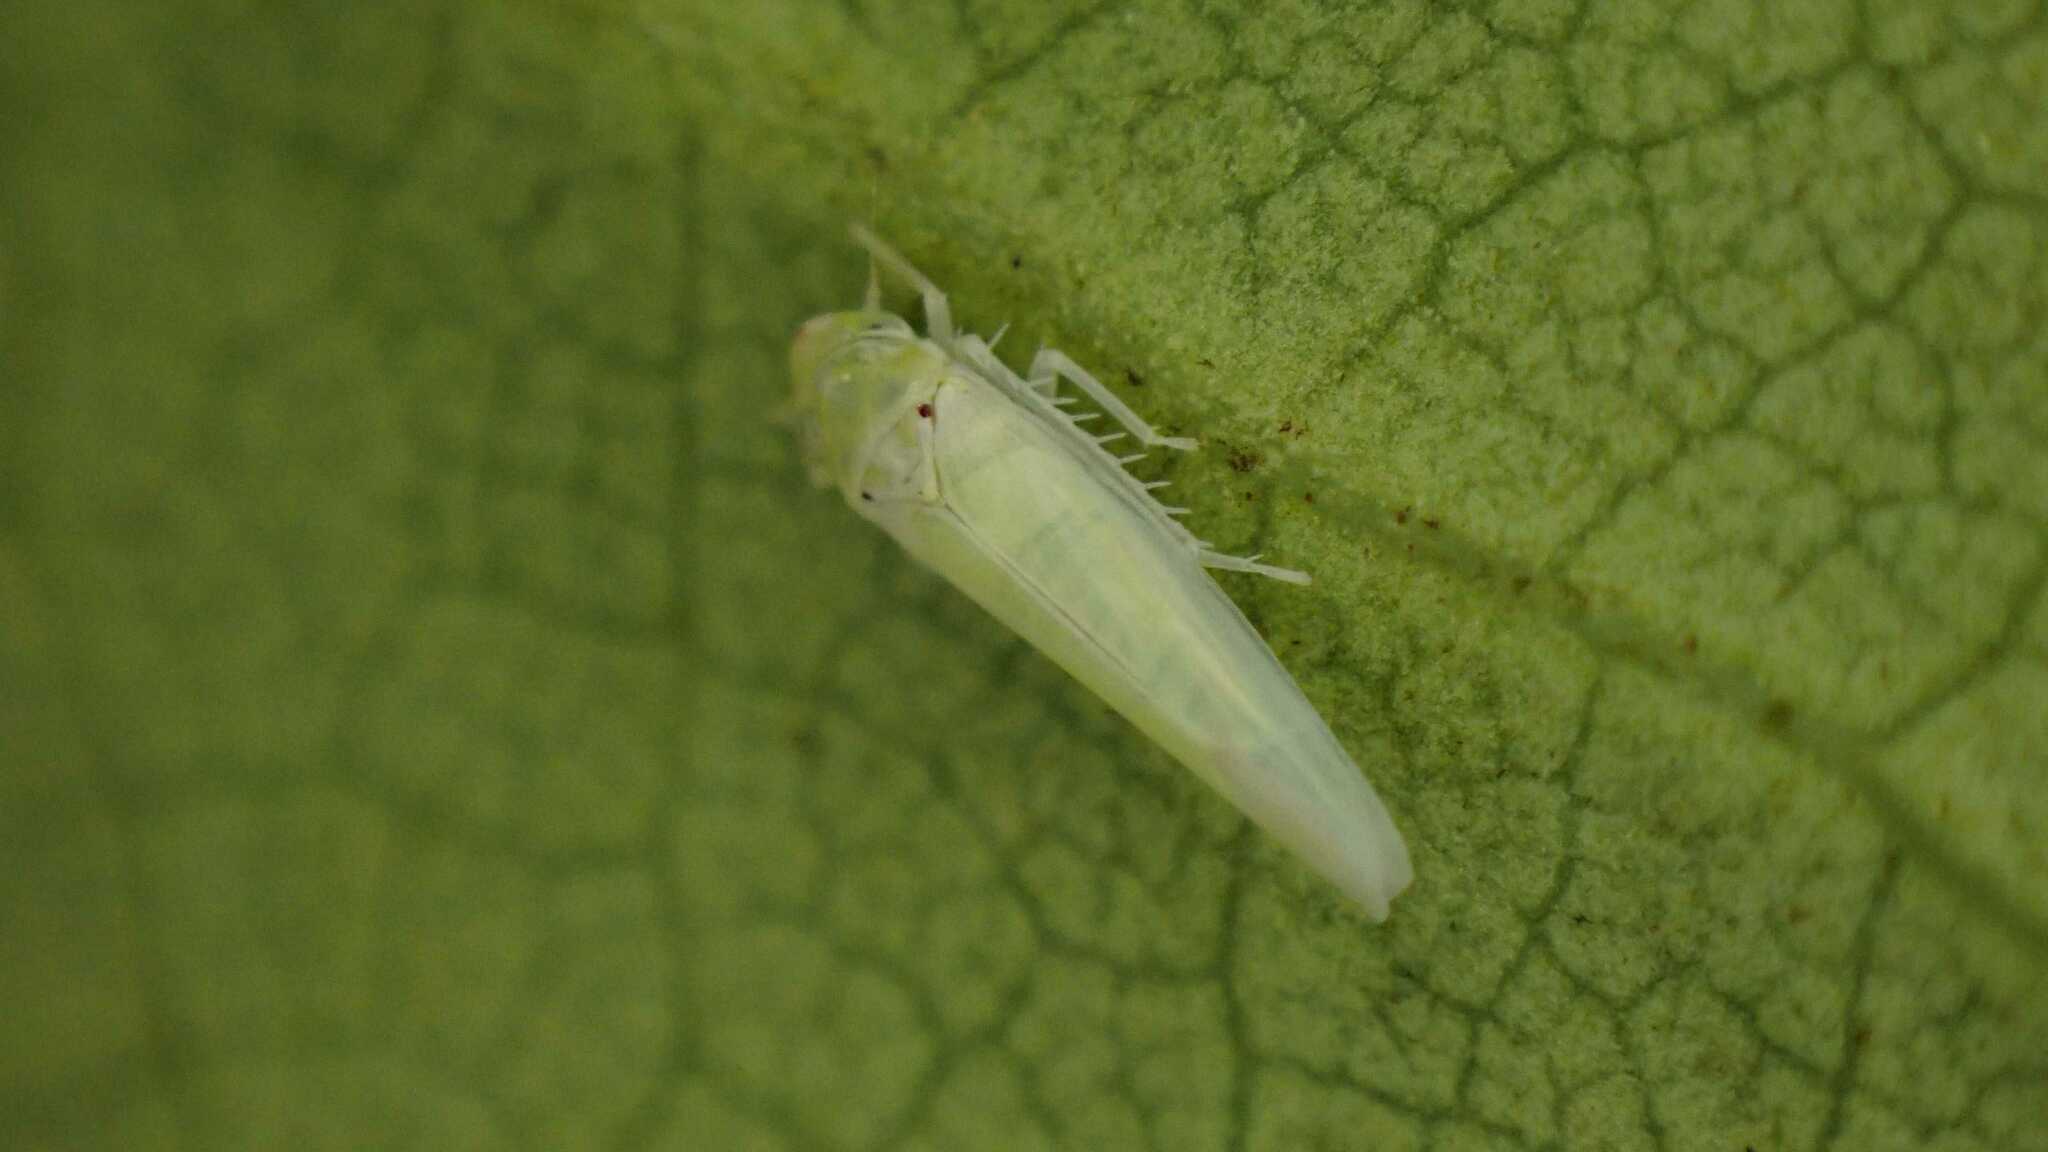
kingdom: Animalia
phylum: Arthropoda
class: Insecta
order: Hemiptera
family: Cicadellidae
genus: Zygina
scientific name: Zygina nivea
